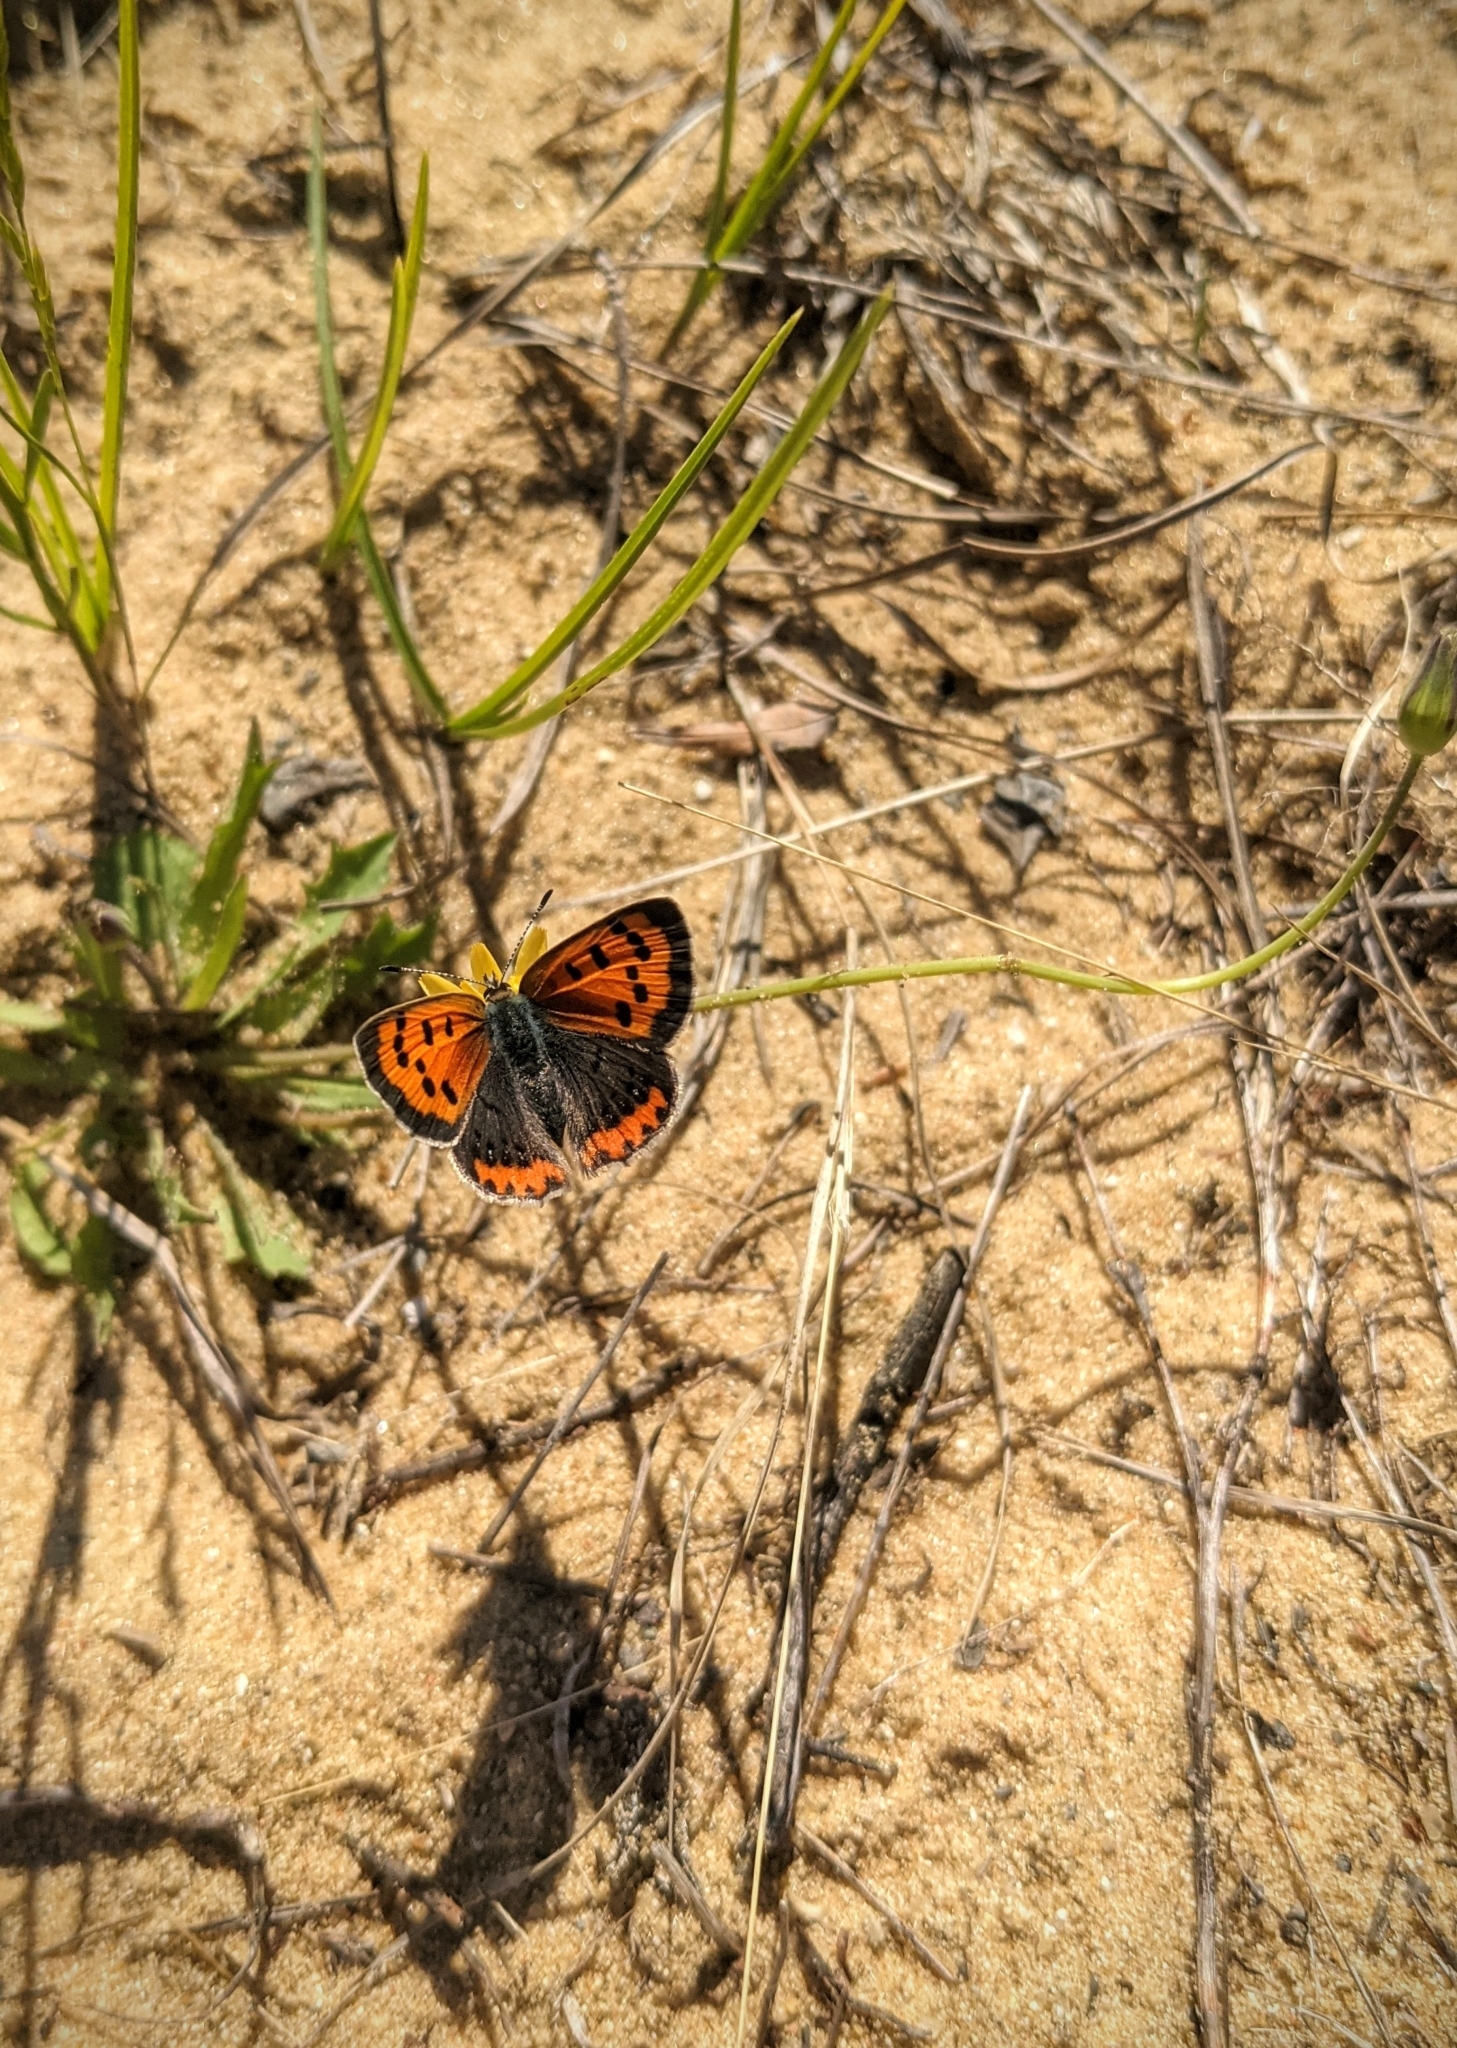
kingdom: Animalia
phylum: Arthropoda
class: Insecta
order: Lepidoptera
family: Lycaenidae
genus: Lycaena
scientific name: Lycaena hypophlaeas
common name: American copper
